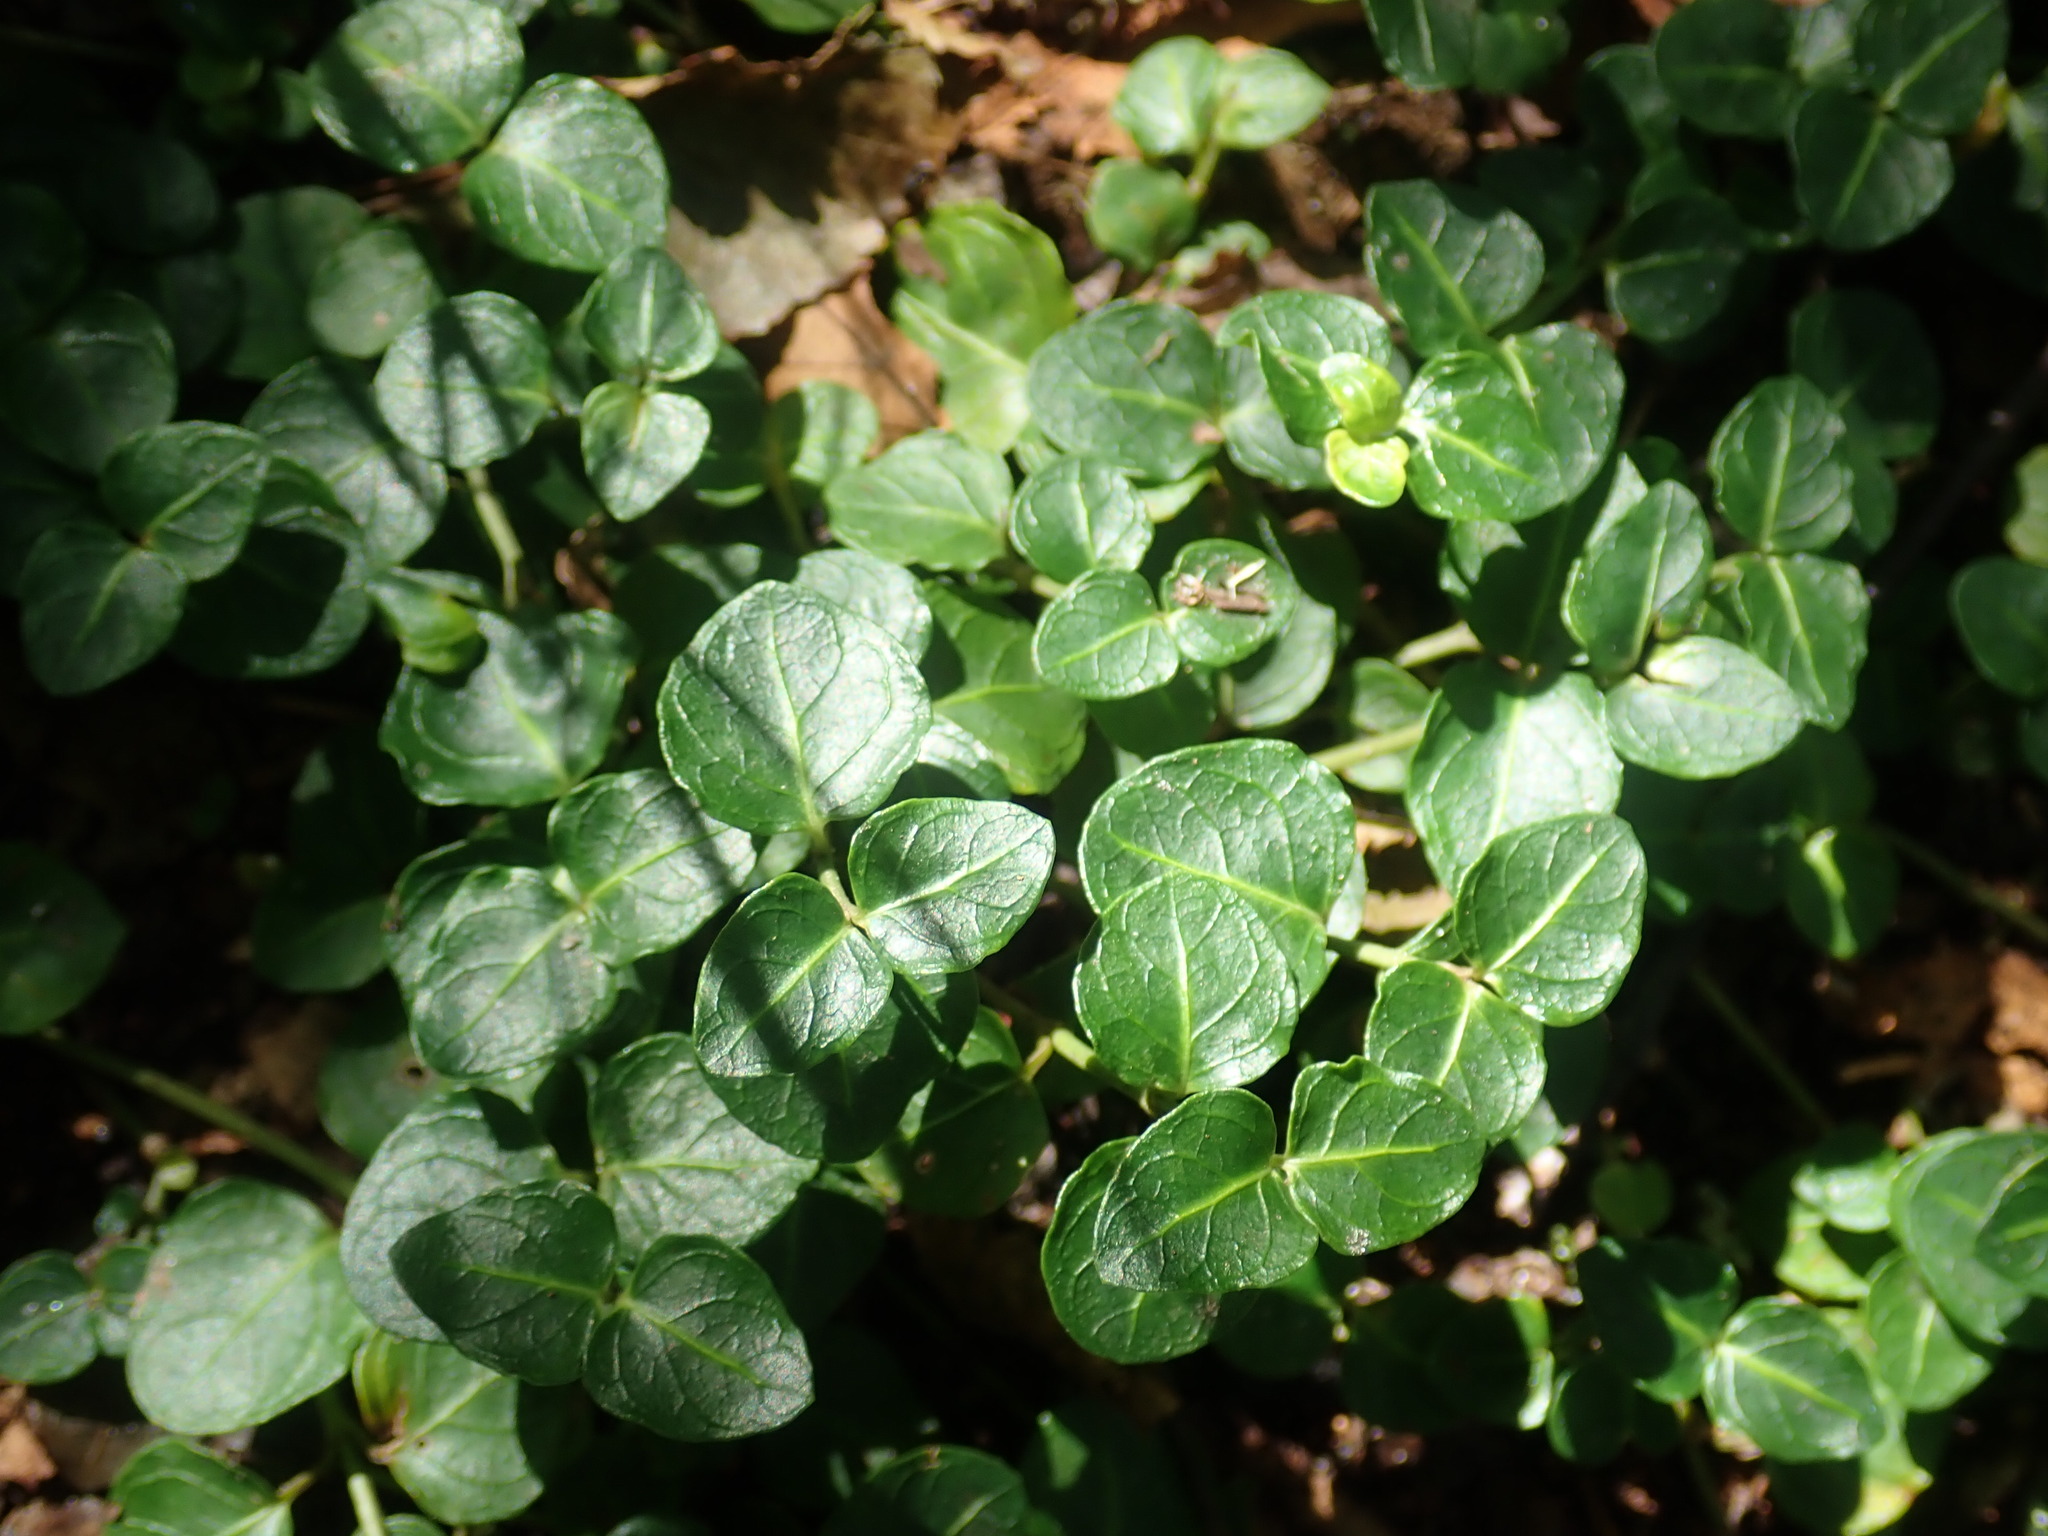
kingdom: Plantae
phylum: Tracheophyta
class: Magnoliopsida
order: Gentianales
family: Rubiaceae
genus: Mitchella
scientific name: Mitchella repens
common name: Partridge-berry
